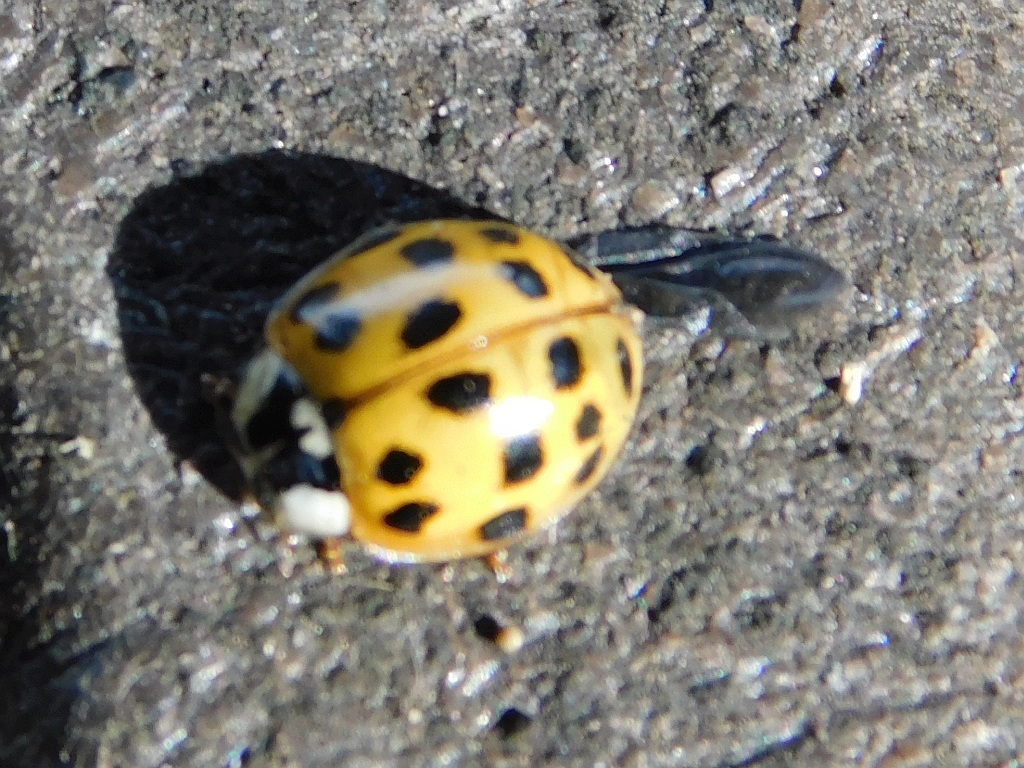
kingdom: Animalia
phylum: Arthropoda
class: Insecta
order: Coleoptera
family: Coccinellidae
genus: Harmonia
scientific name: Harmonia axyridis
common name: Harlequin ladybird
